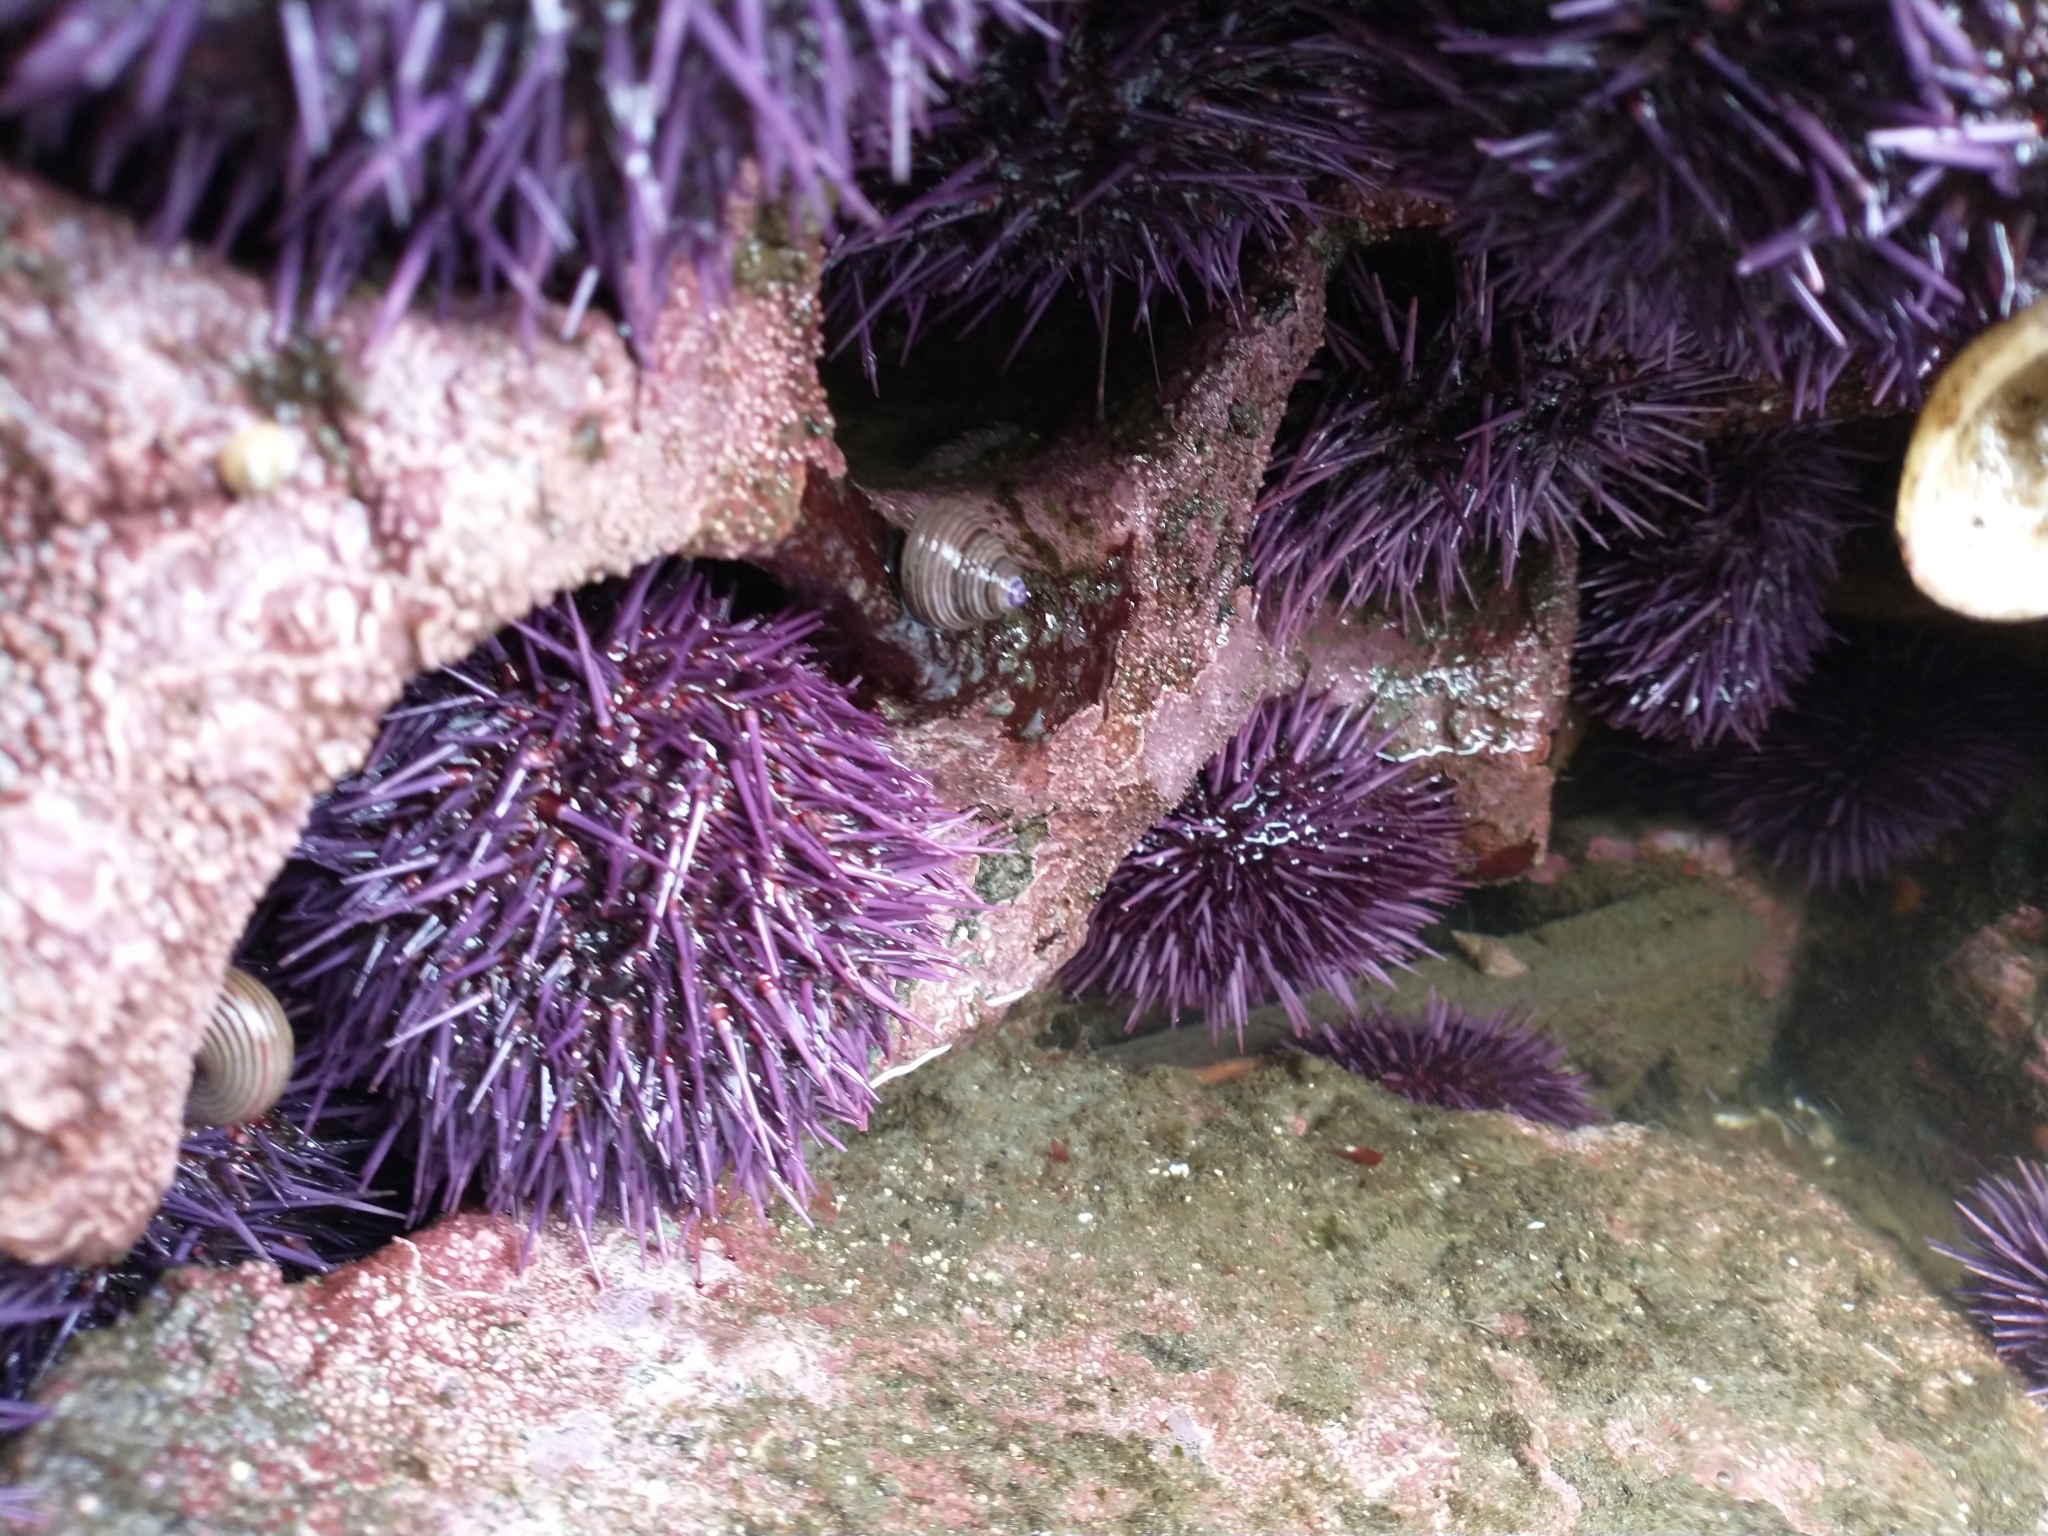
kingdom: Animalia
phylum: Echinodermata
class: Echinoidea
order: Camarodonta
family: Strongylocentrotidae
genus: Strongylocentrotus
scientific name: Strongylocentrotus purpuratus
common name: Purple sea urchin
